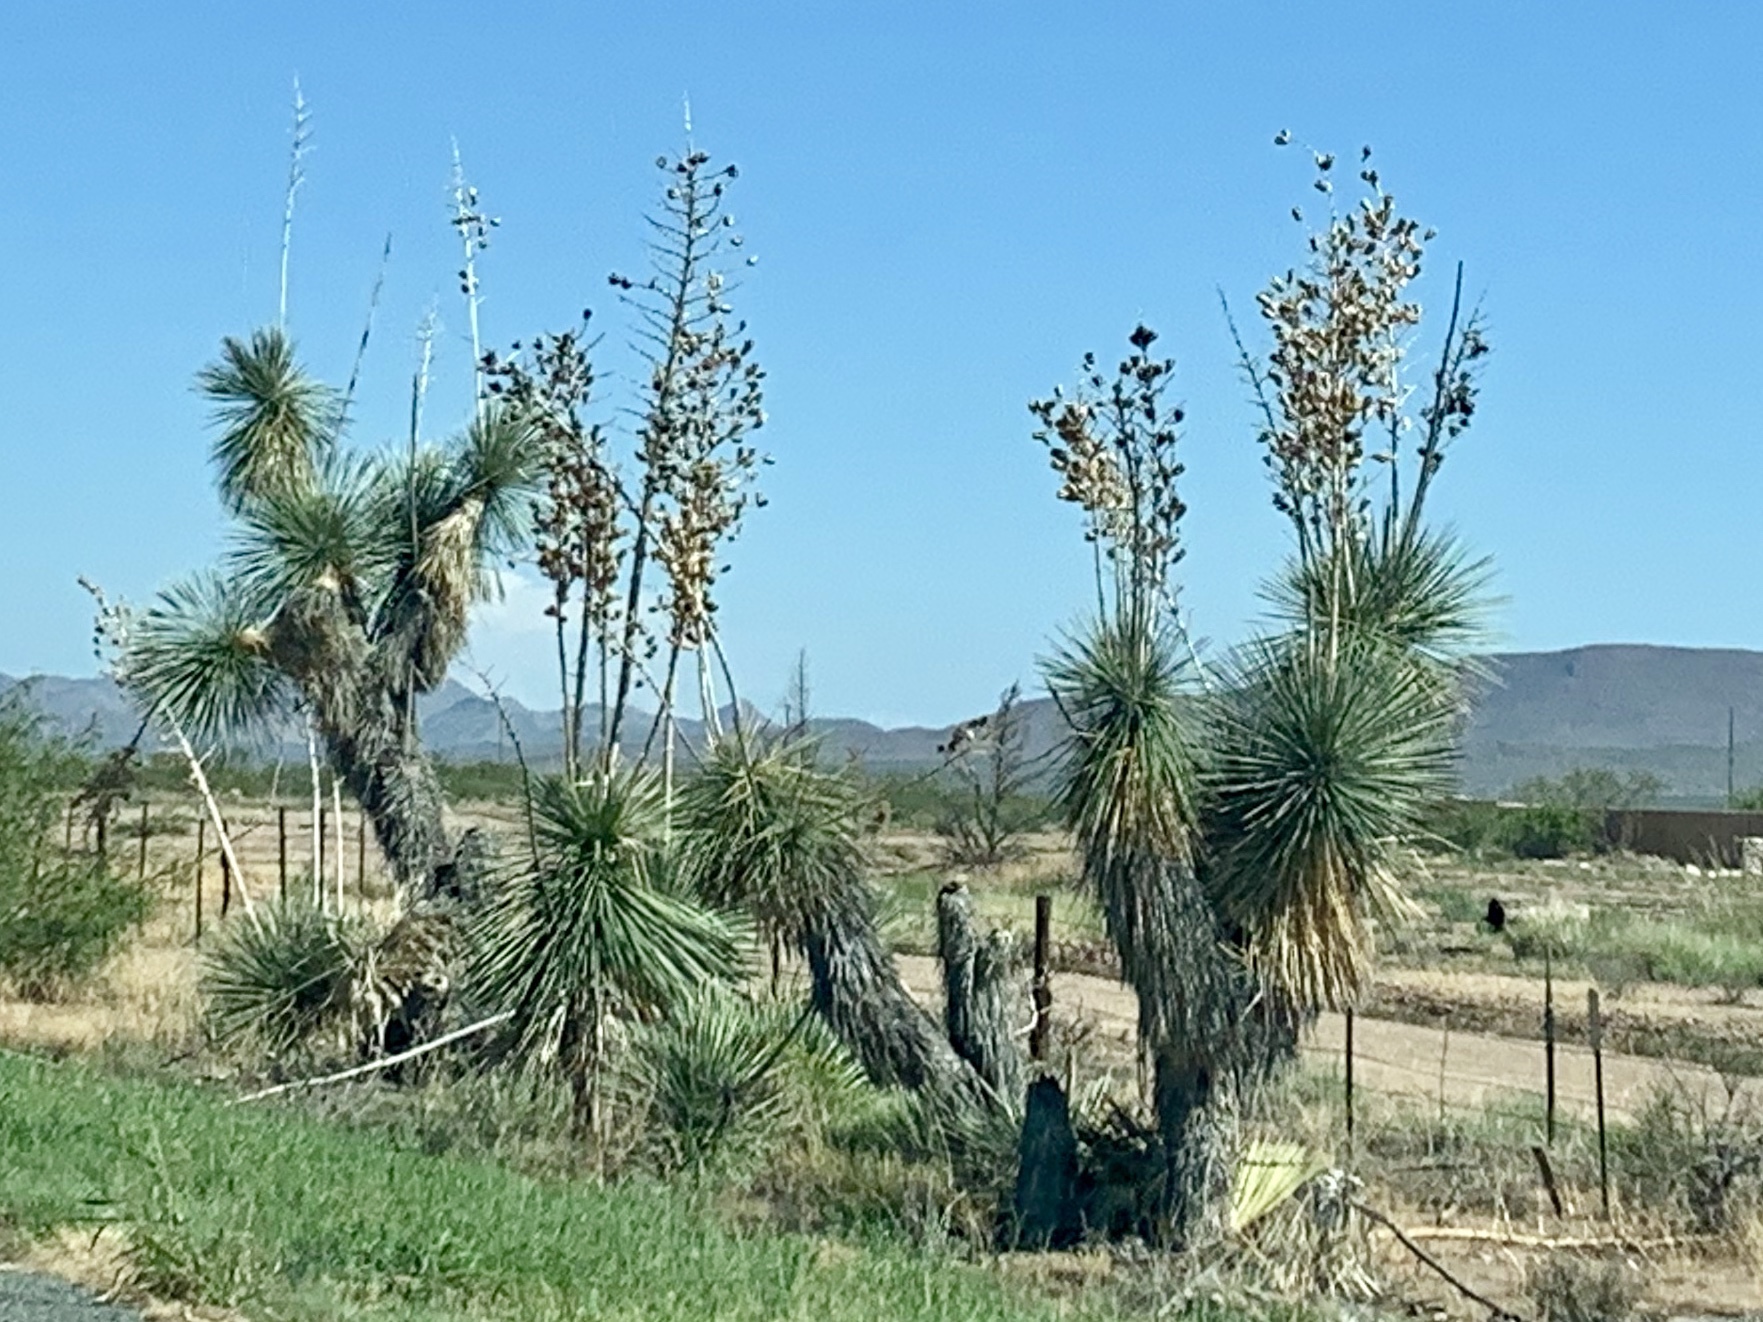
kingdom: Plantae
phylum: Tracheophyta
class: Liliopsida
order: Asparagales
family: Asparagaceae
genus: Yucca
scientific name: Yucca elata
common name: Palmella
